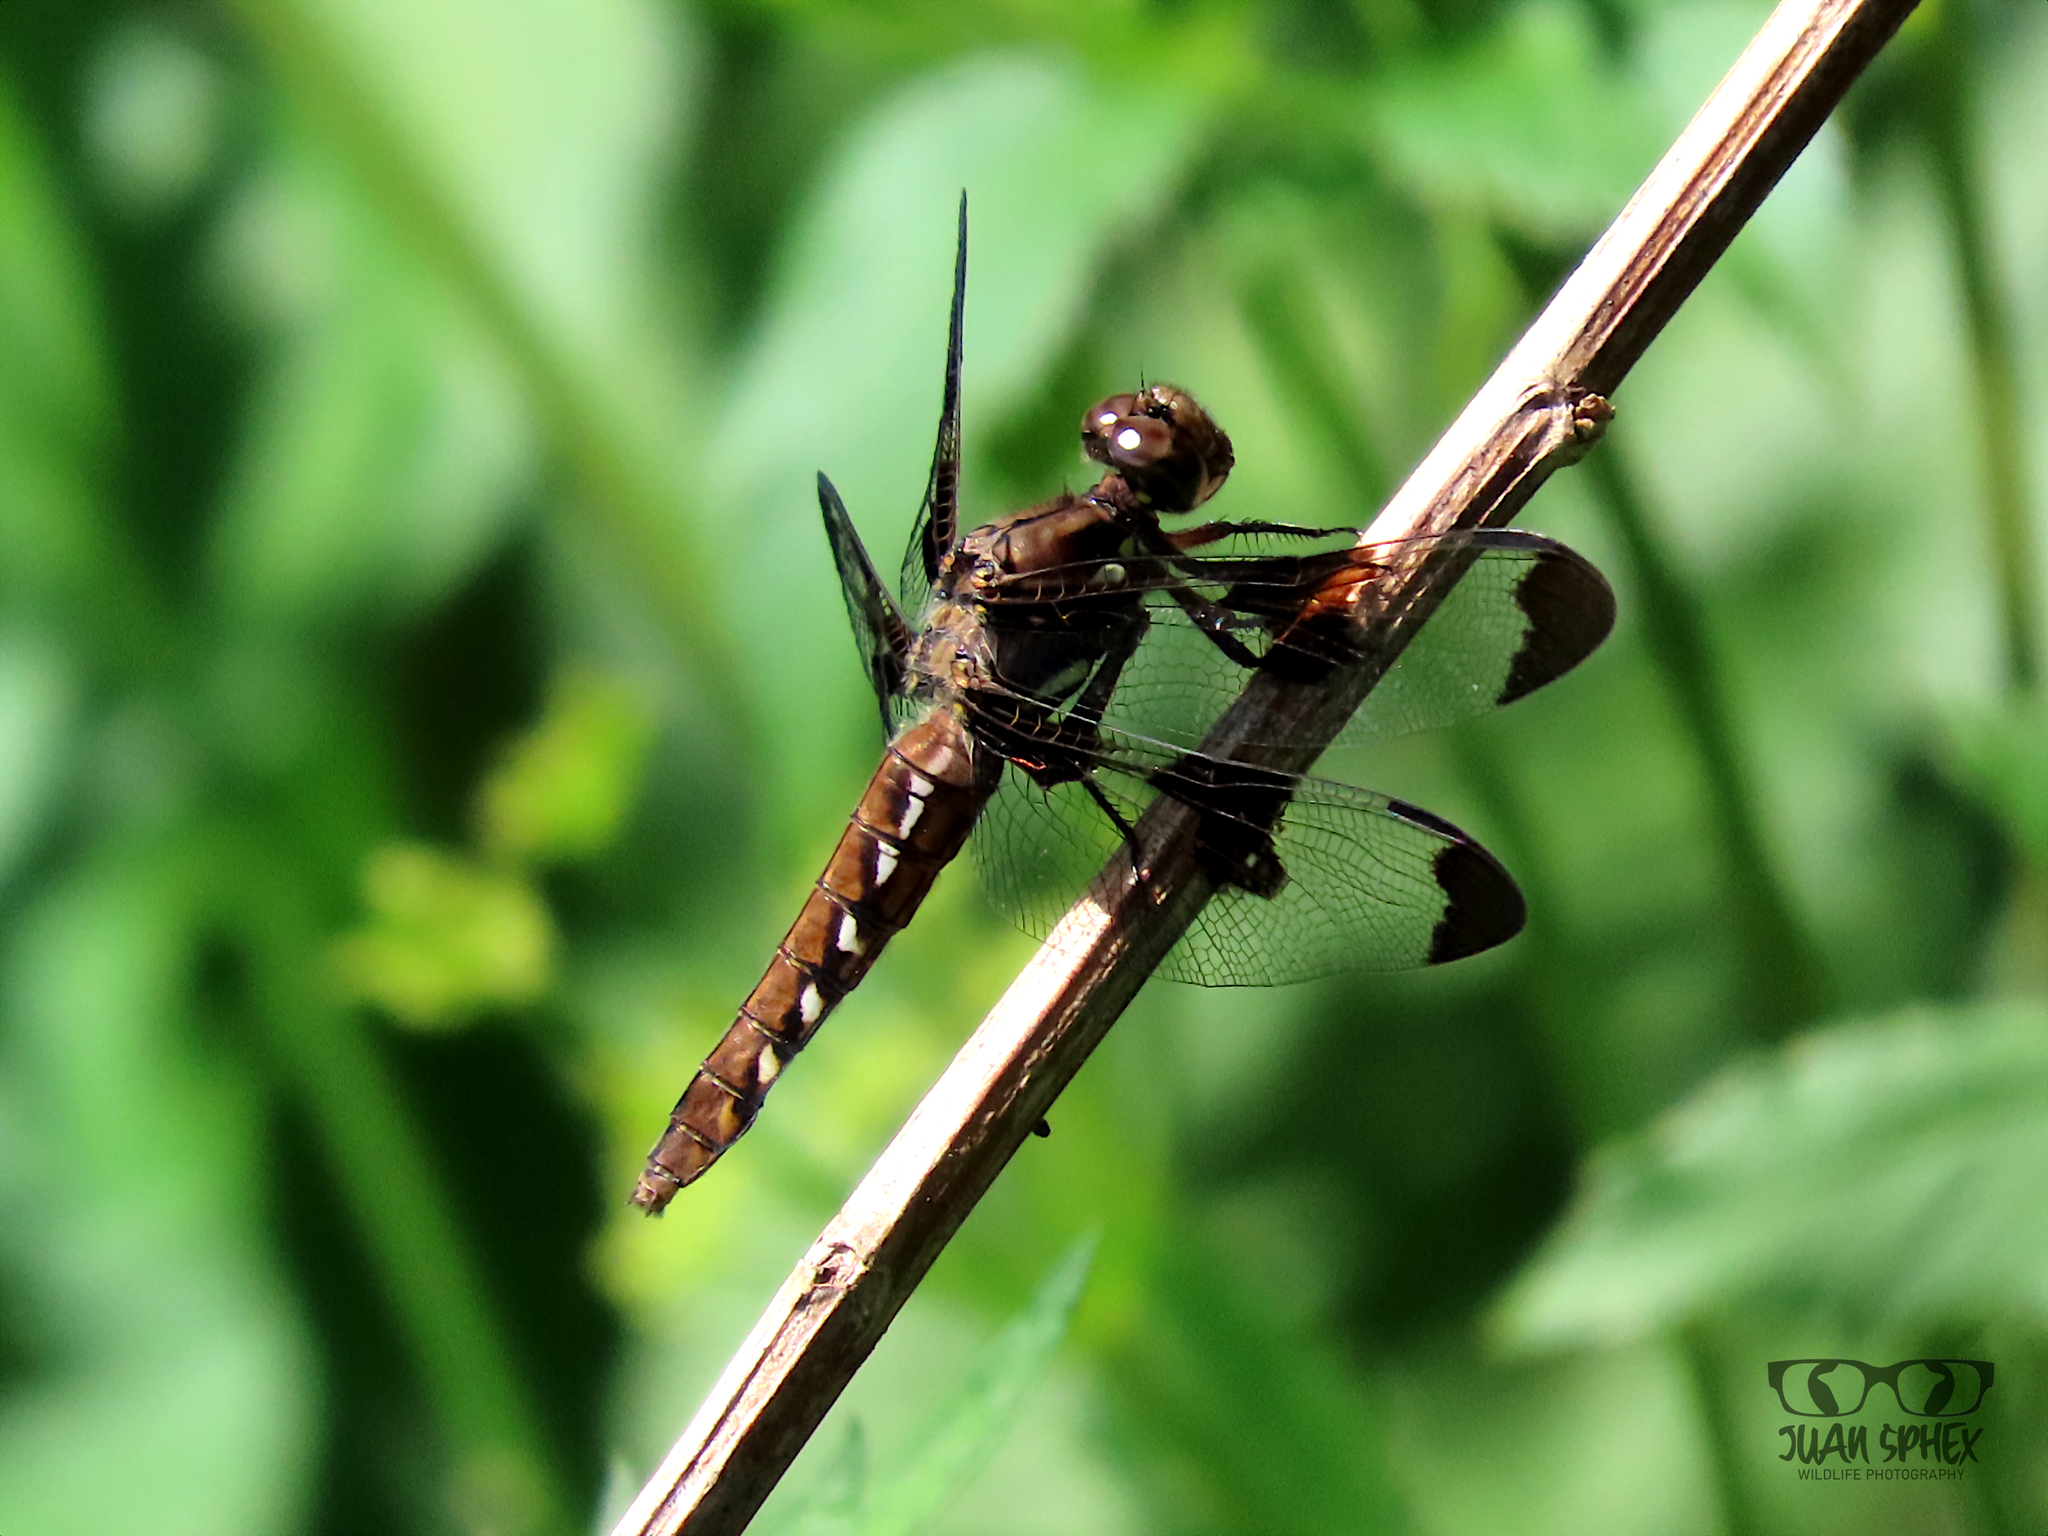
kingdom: Animalia
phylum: Arthropoda
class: Insecta
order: Odonata
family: Libellulidae
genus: Plathemis
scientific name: Plathemis lydia
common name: Common whitetail
